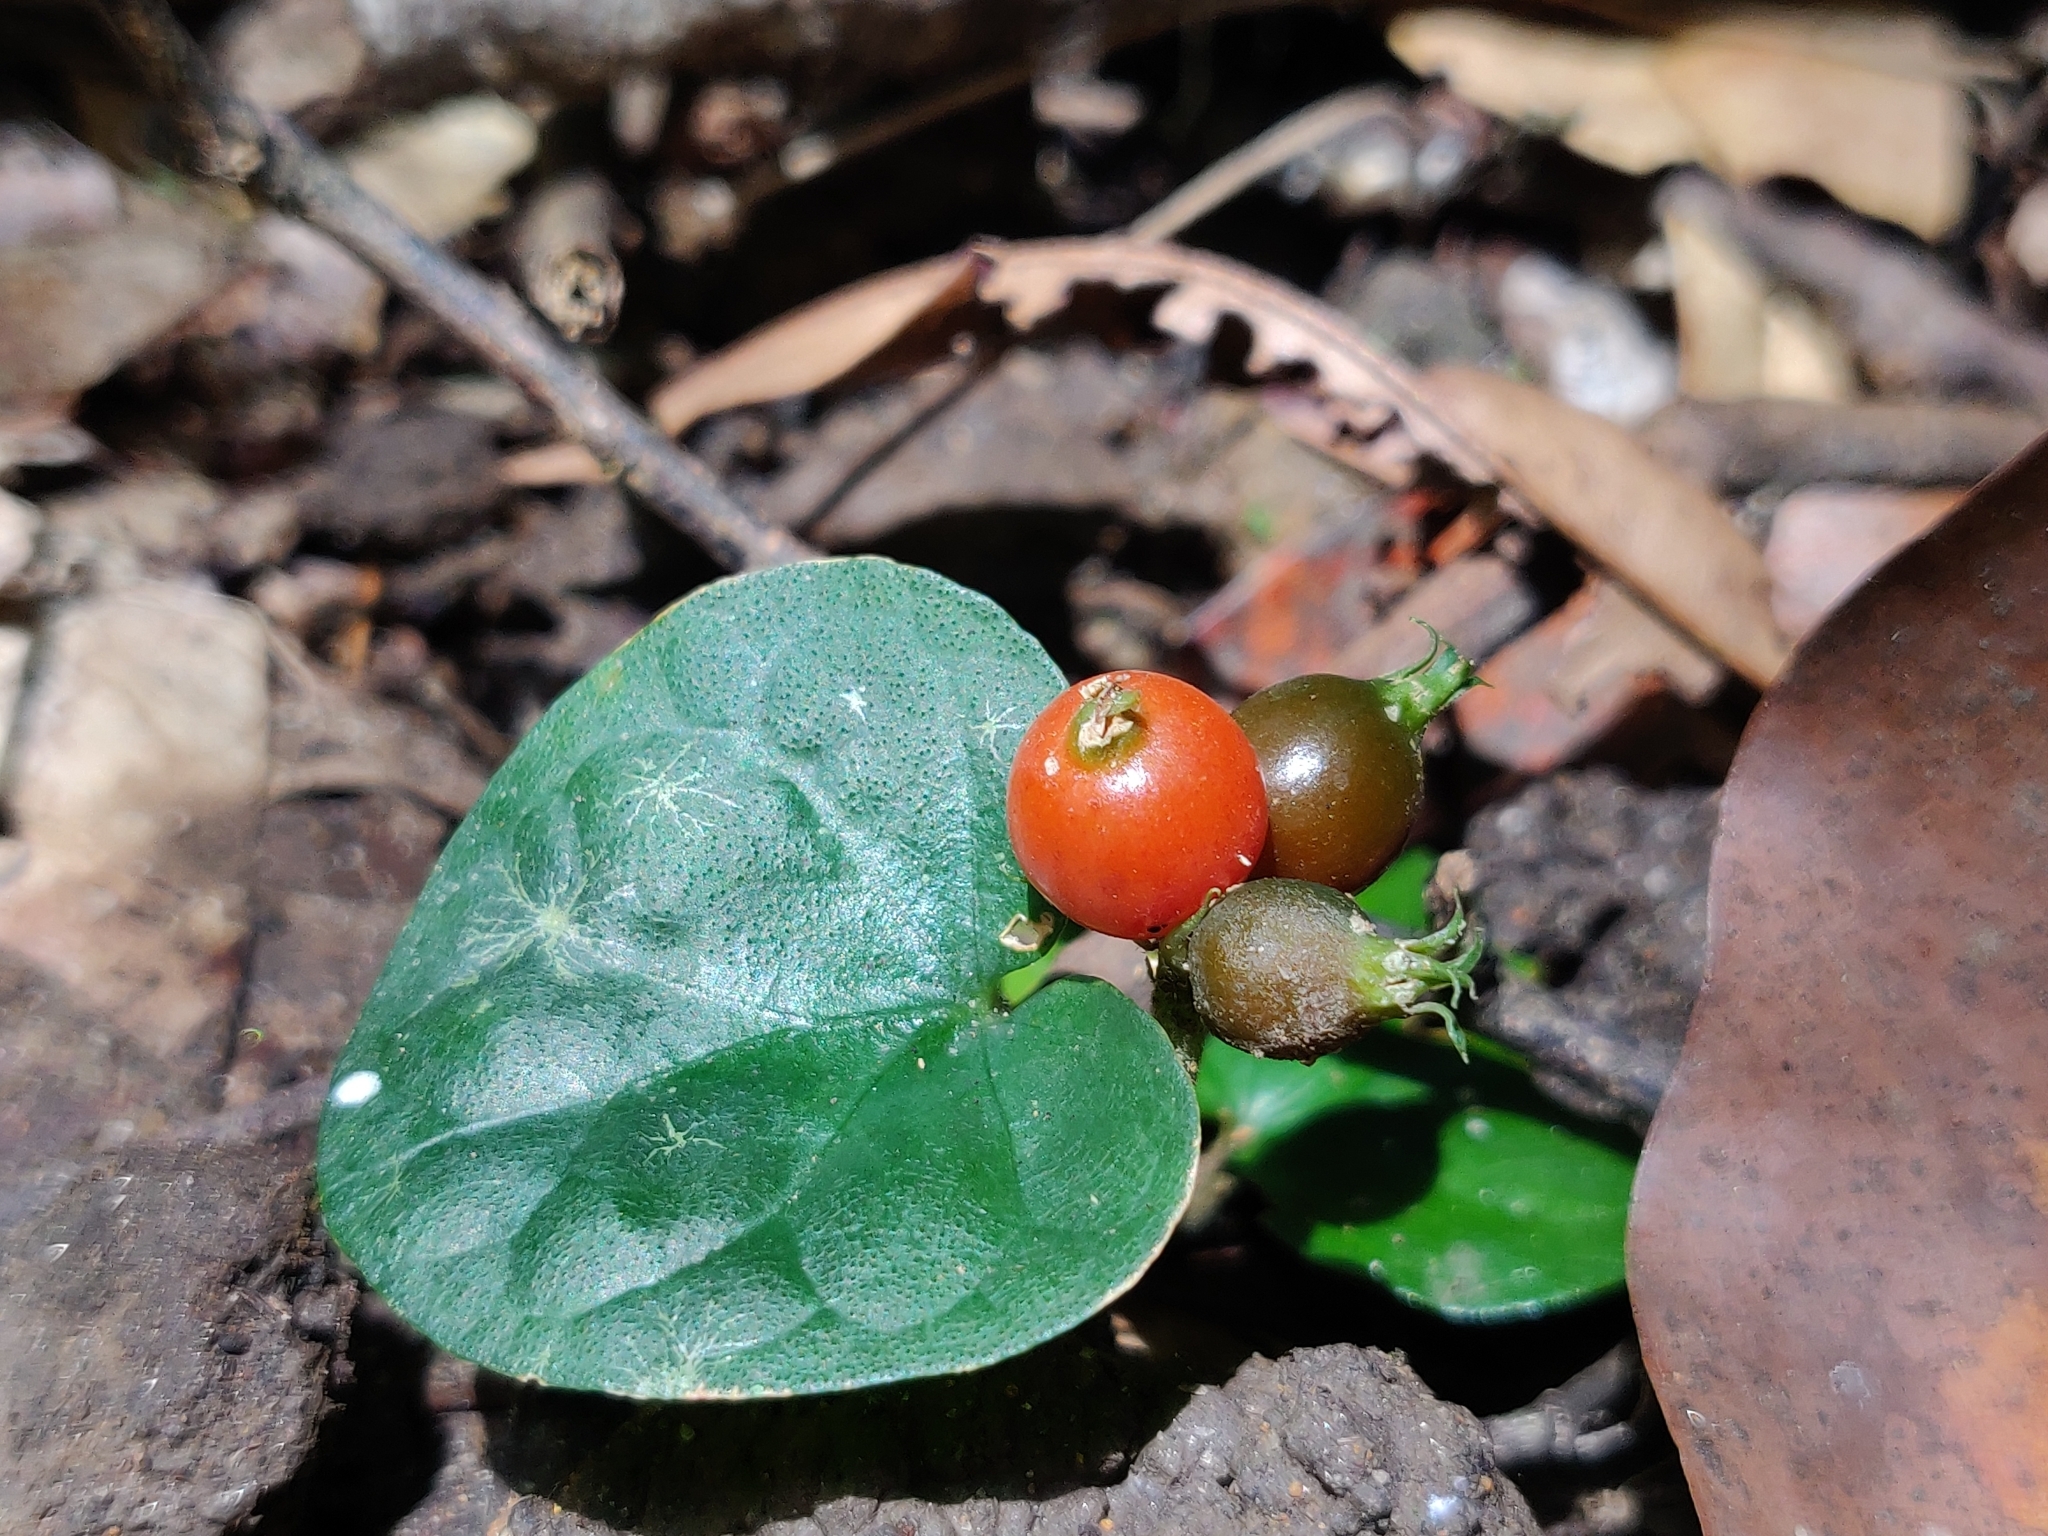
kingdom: Plantae
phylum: Tracheophyta
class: Magnoliopsida
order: Gentianales
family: Rubiaceae
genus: Geophila
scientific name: Geophila herbacea
